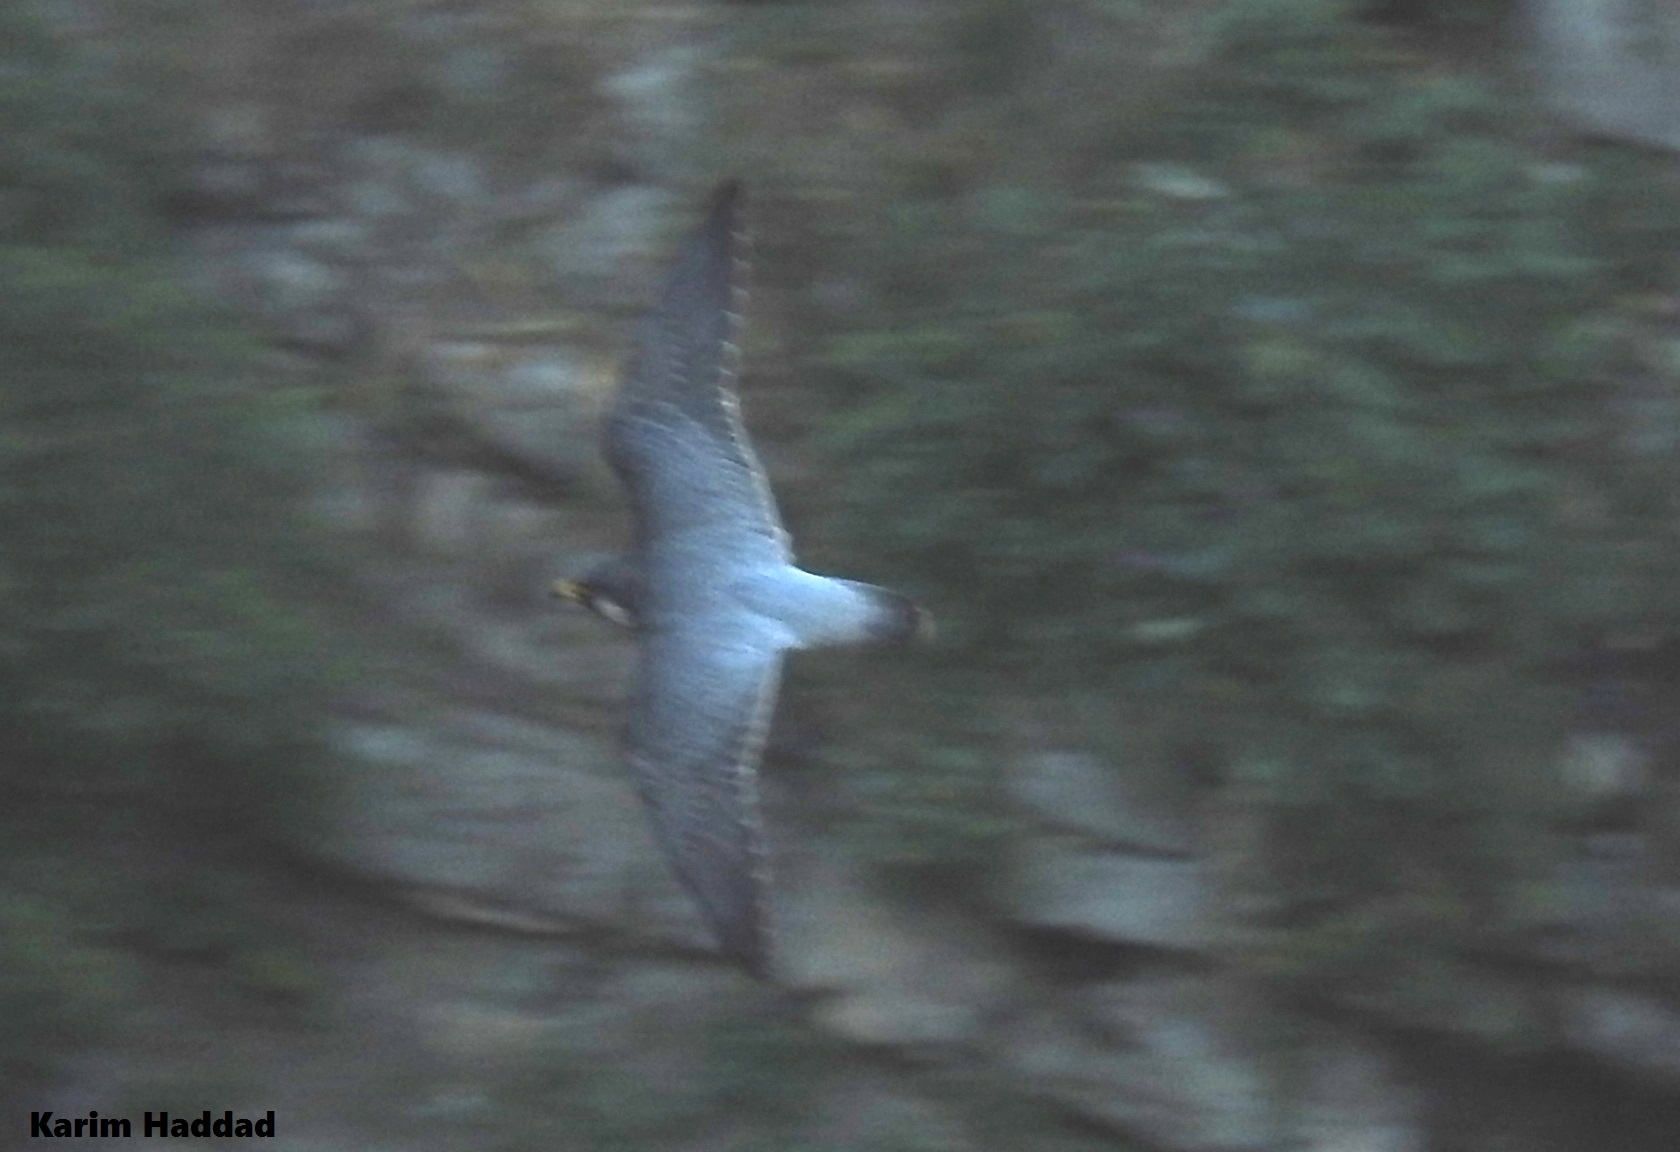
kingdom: Animalia
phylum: Chordata
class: Aves
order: Falconiformes
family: Falconidae
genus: Falco
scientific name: Falco peregrinus
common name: Peregrine falcon
